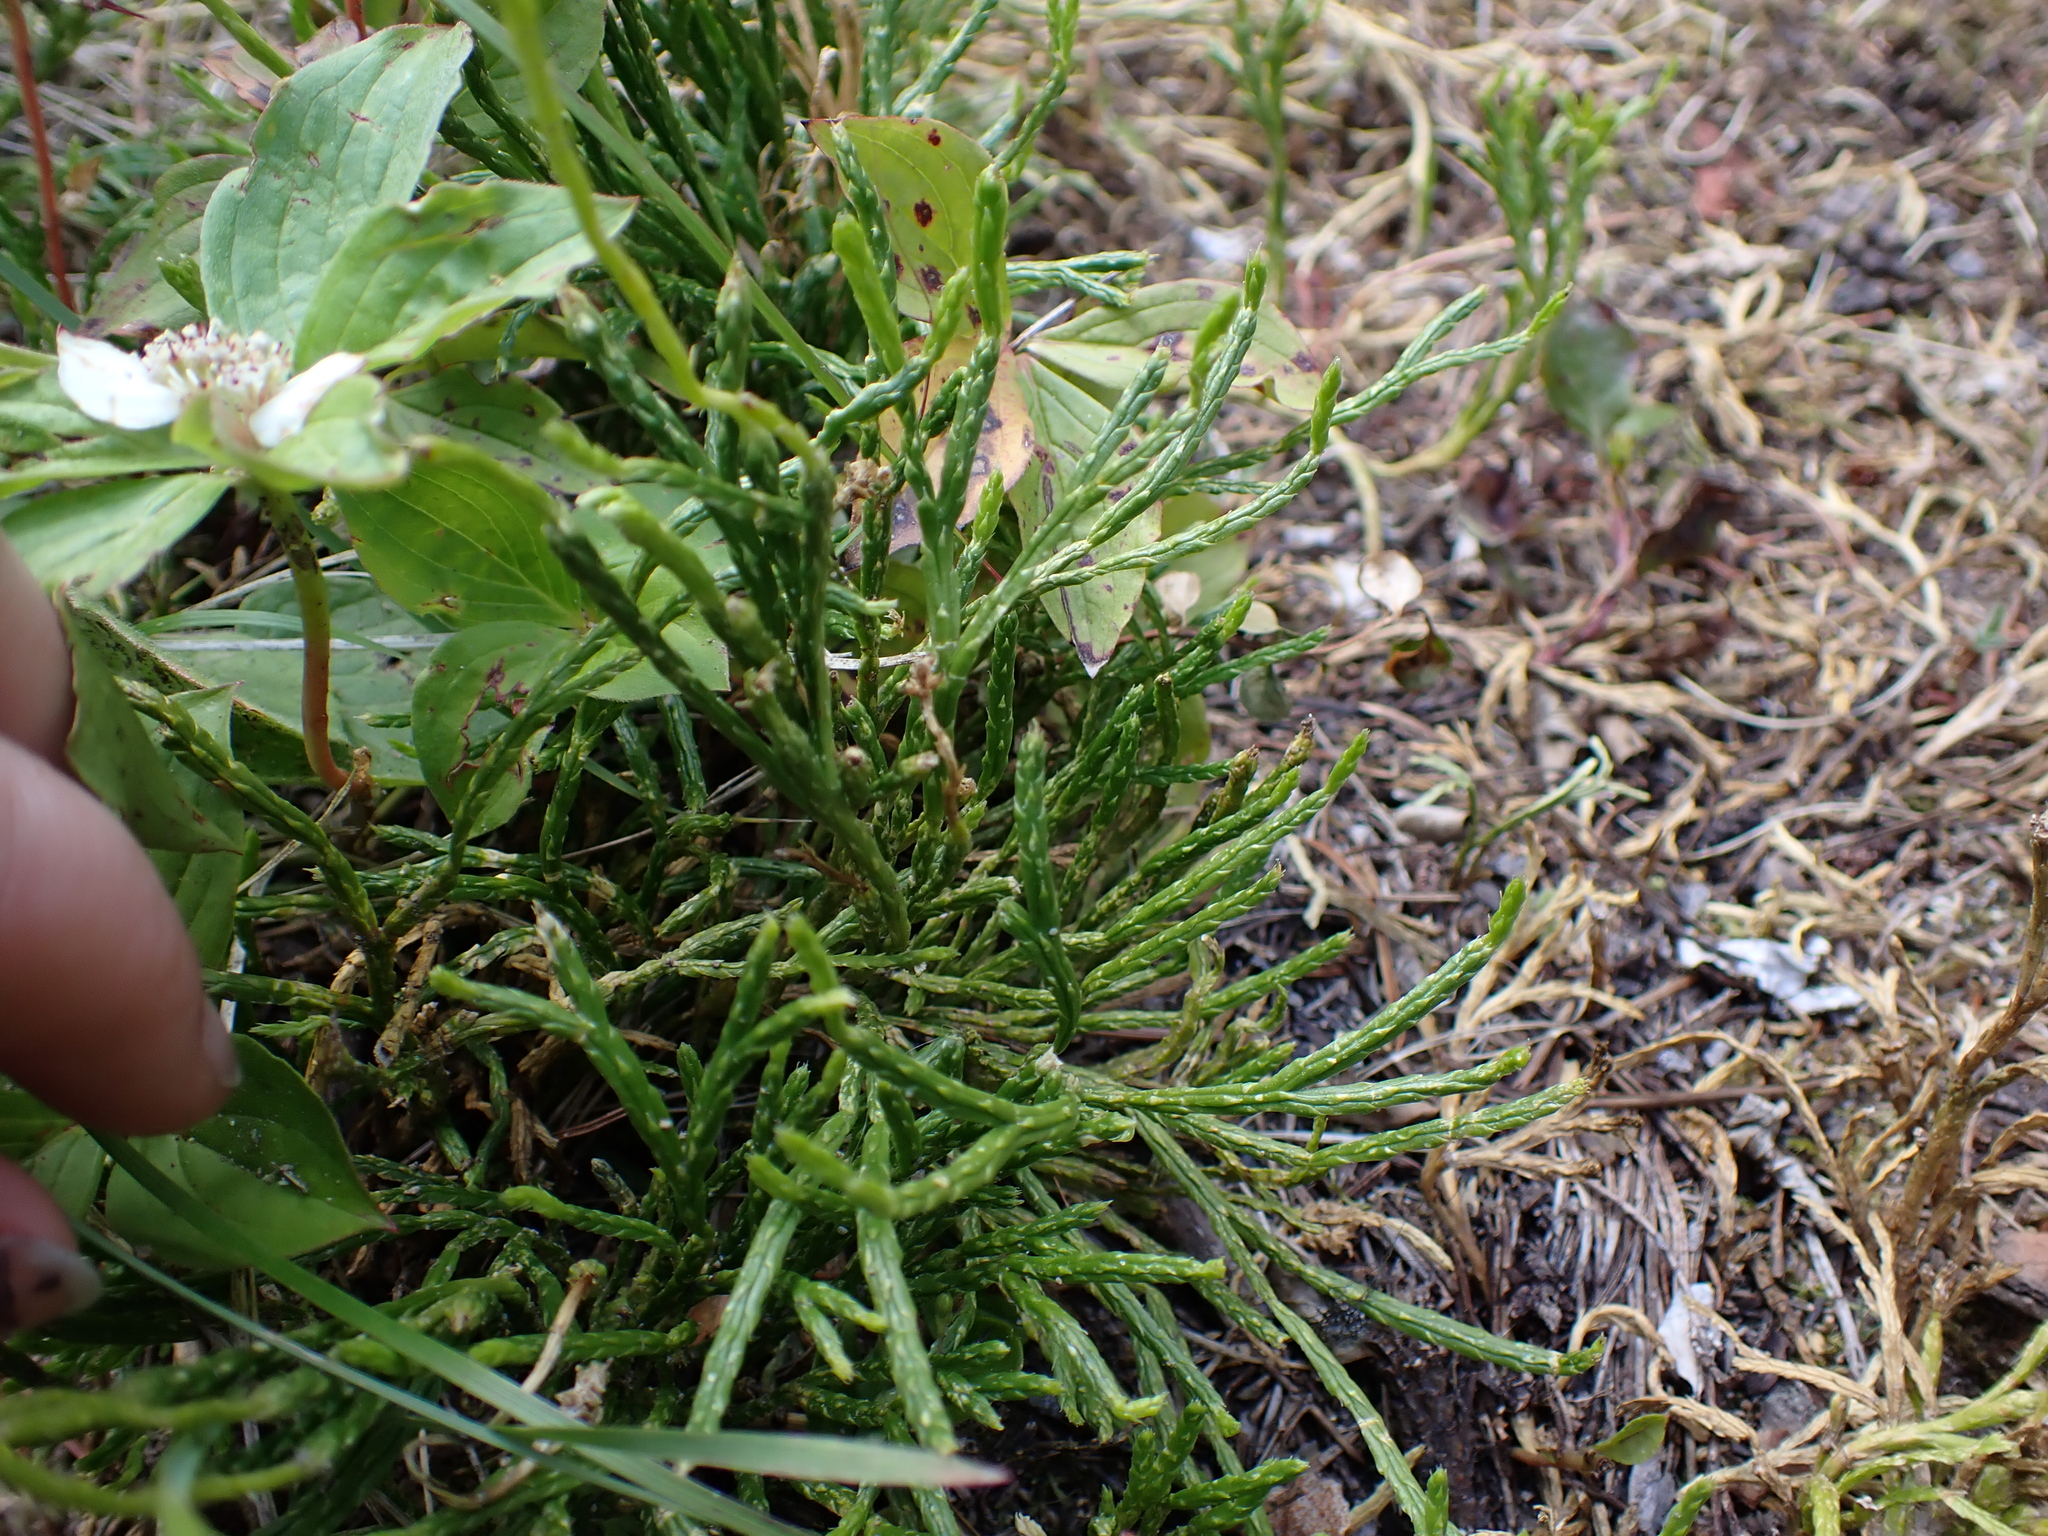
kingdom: Plantae
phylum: Tracheophyta
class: Lycopodiopsida
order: Lycopodiales
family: Lycopodiaceae
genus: Diphasiastrum
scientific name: Diphasiastrum complanatum
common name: Northern running-pine
